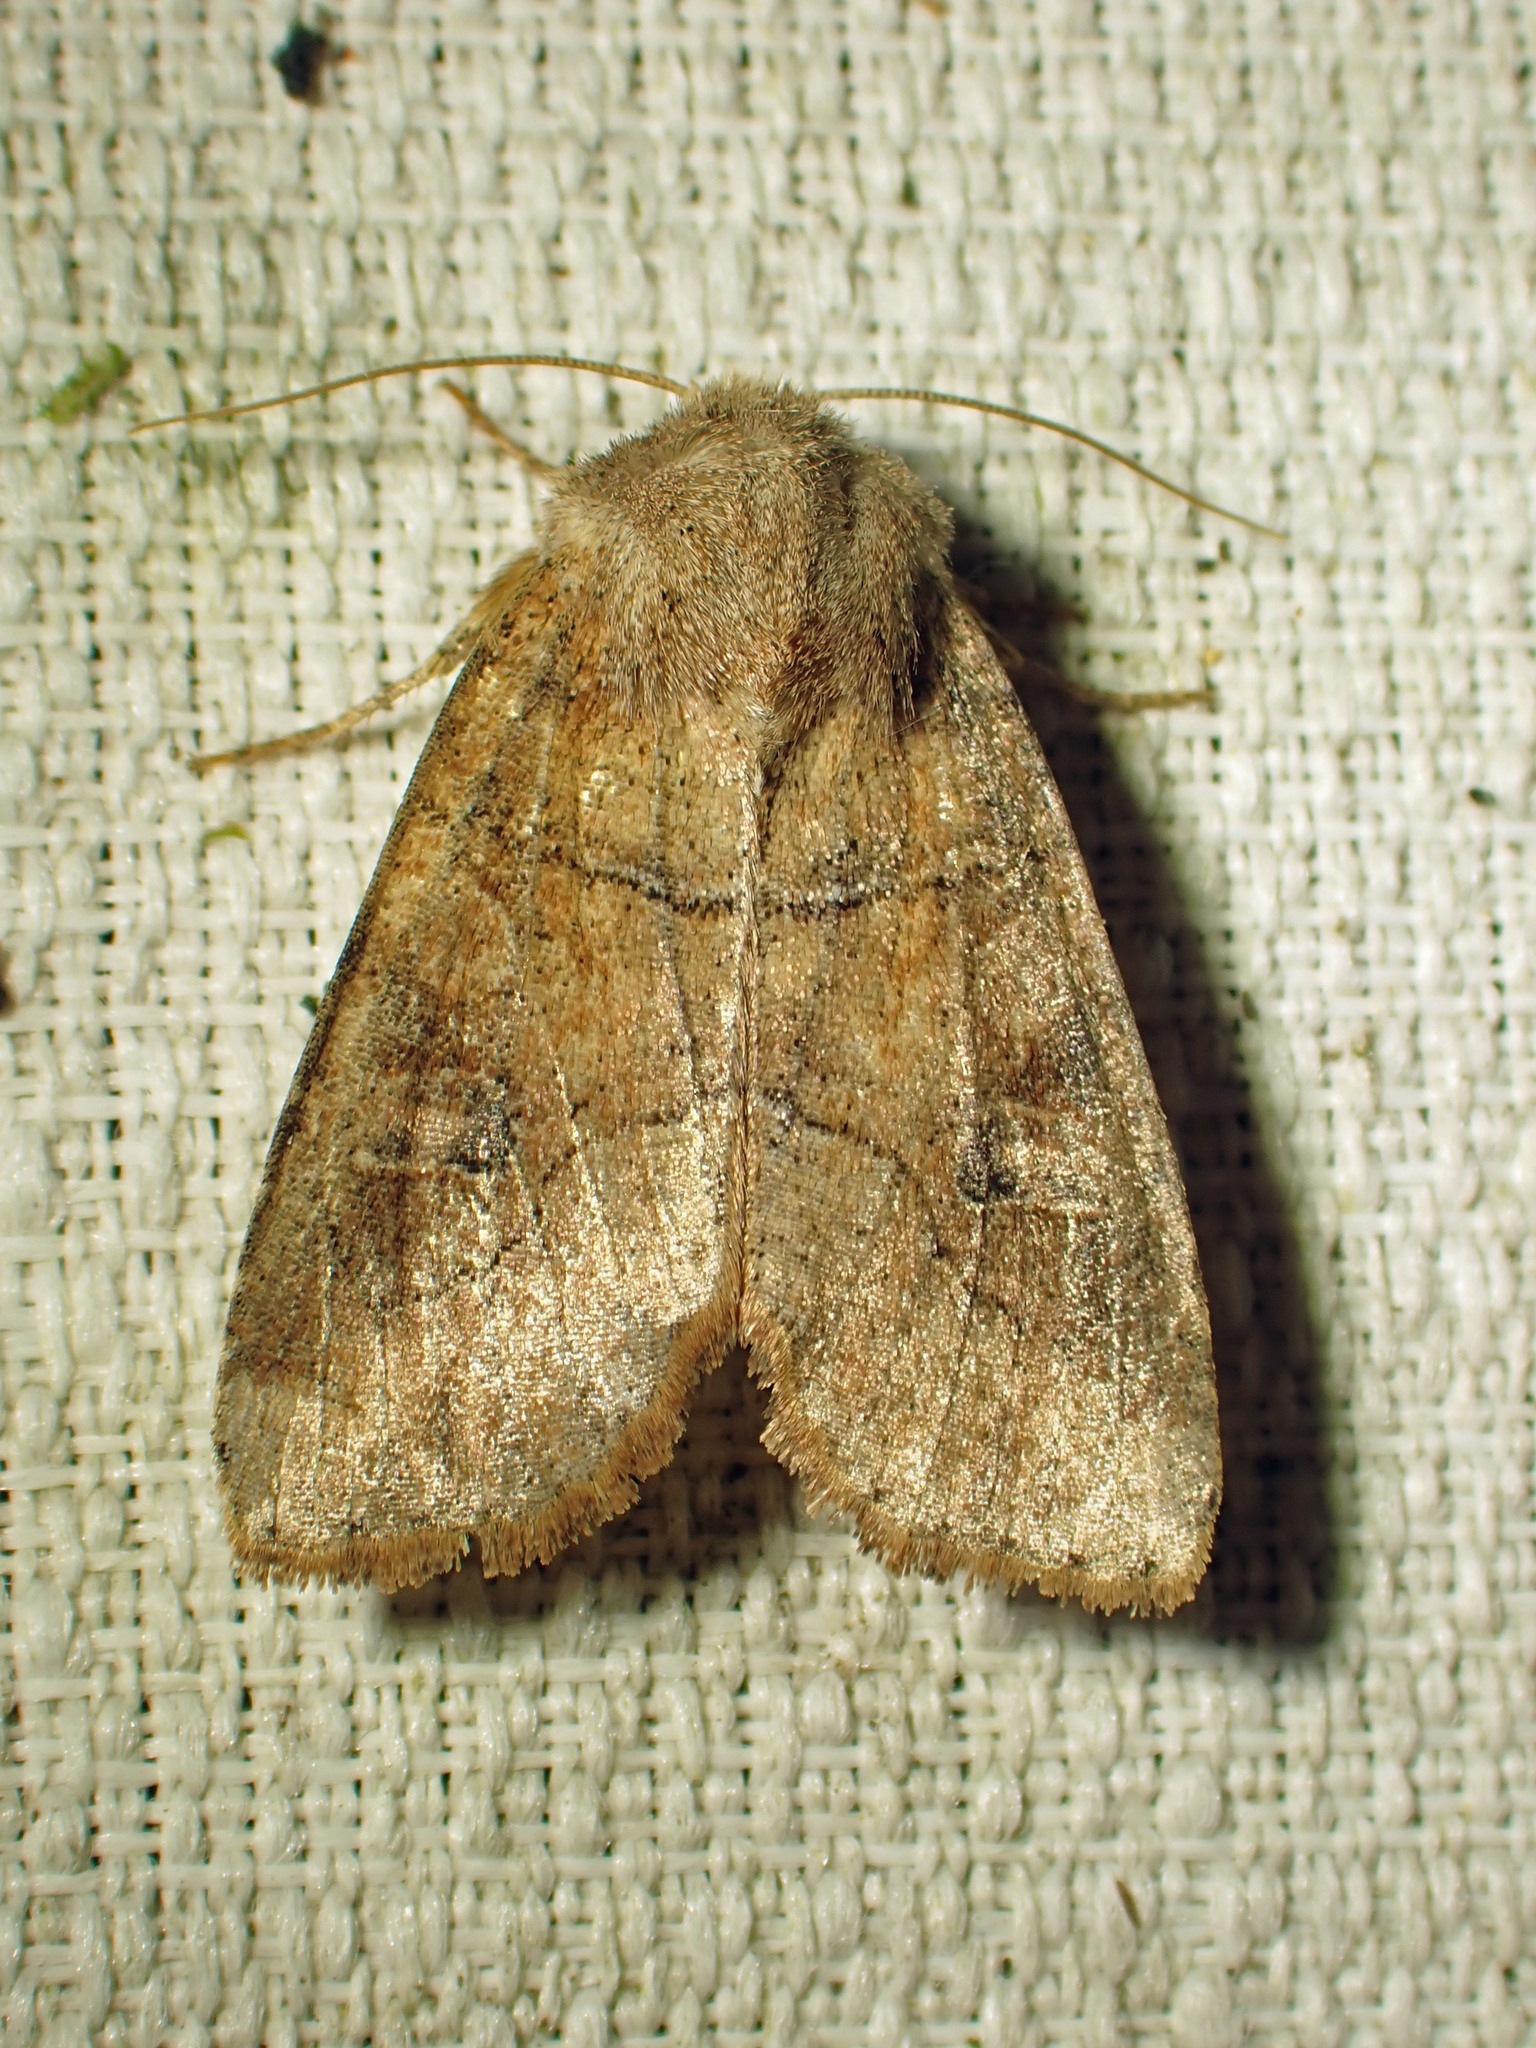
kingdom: Animalia
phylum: Arthropoda
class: Insecta
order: Lepidoptera
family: Noctuidae
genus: Crocigrapha
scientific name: Crocigrapha normani
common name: Norman's quaker
